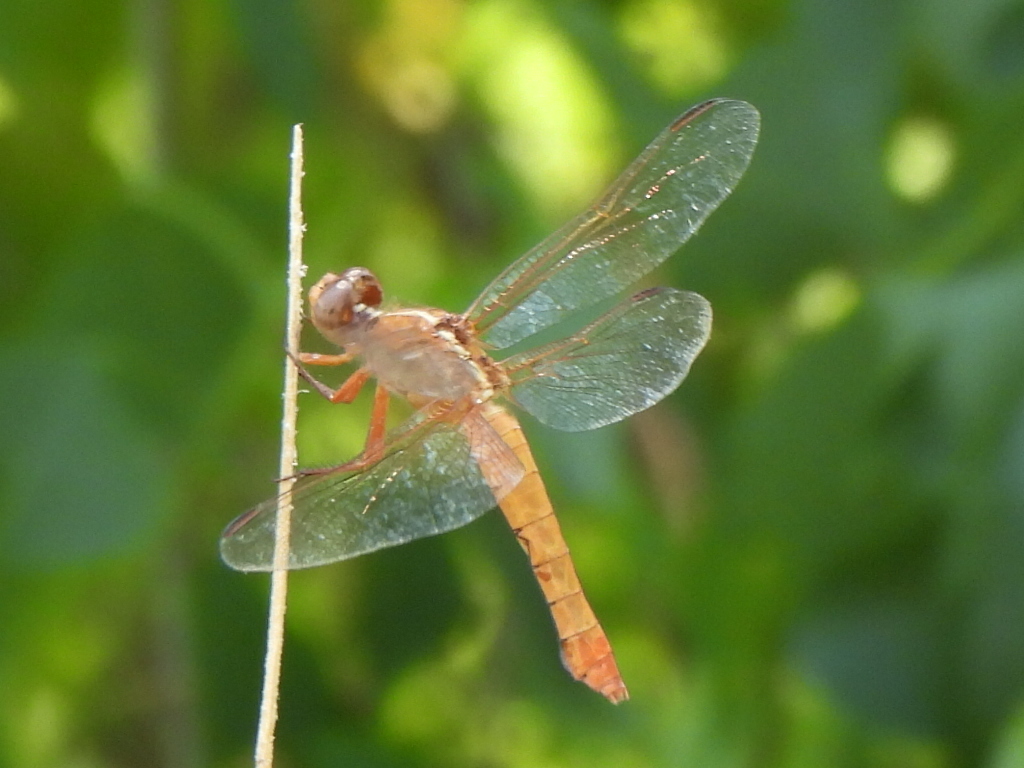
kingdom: Animalia
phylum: Arthropoda
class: Insecta
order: Odonata
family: Libellulidae
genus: Libellula
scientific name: Libellula croceipennis
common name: Neon skimmer
